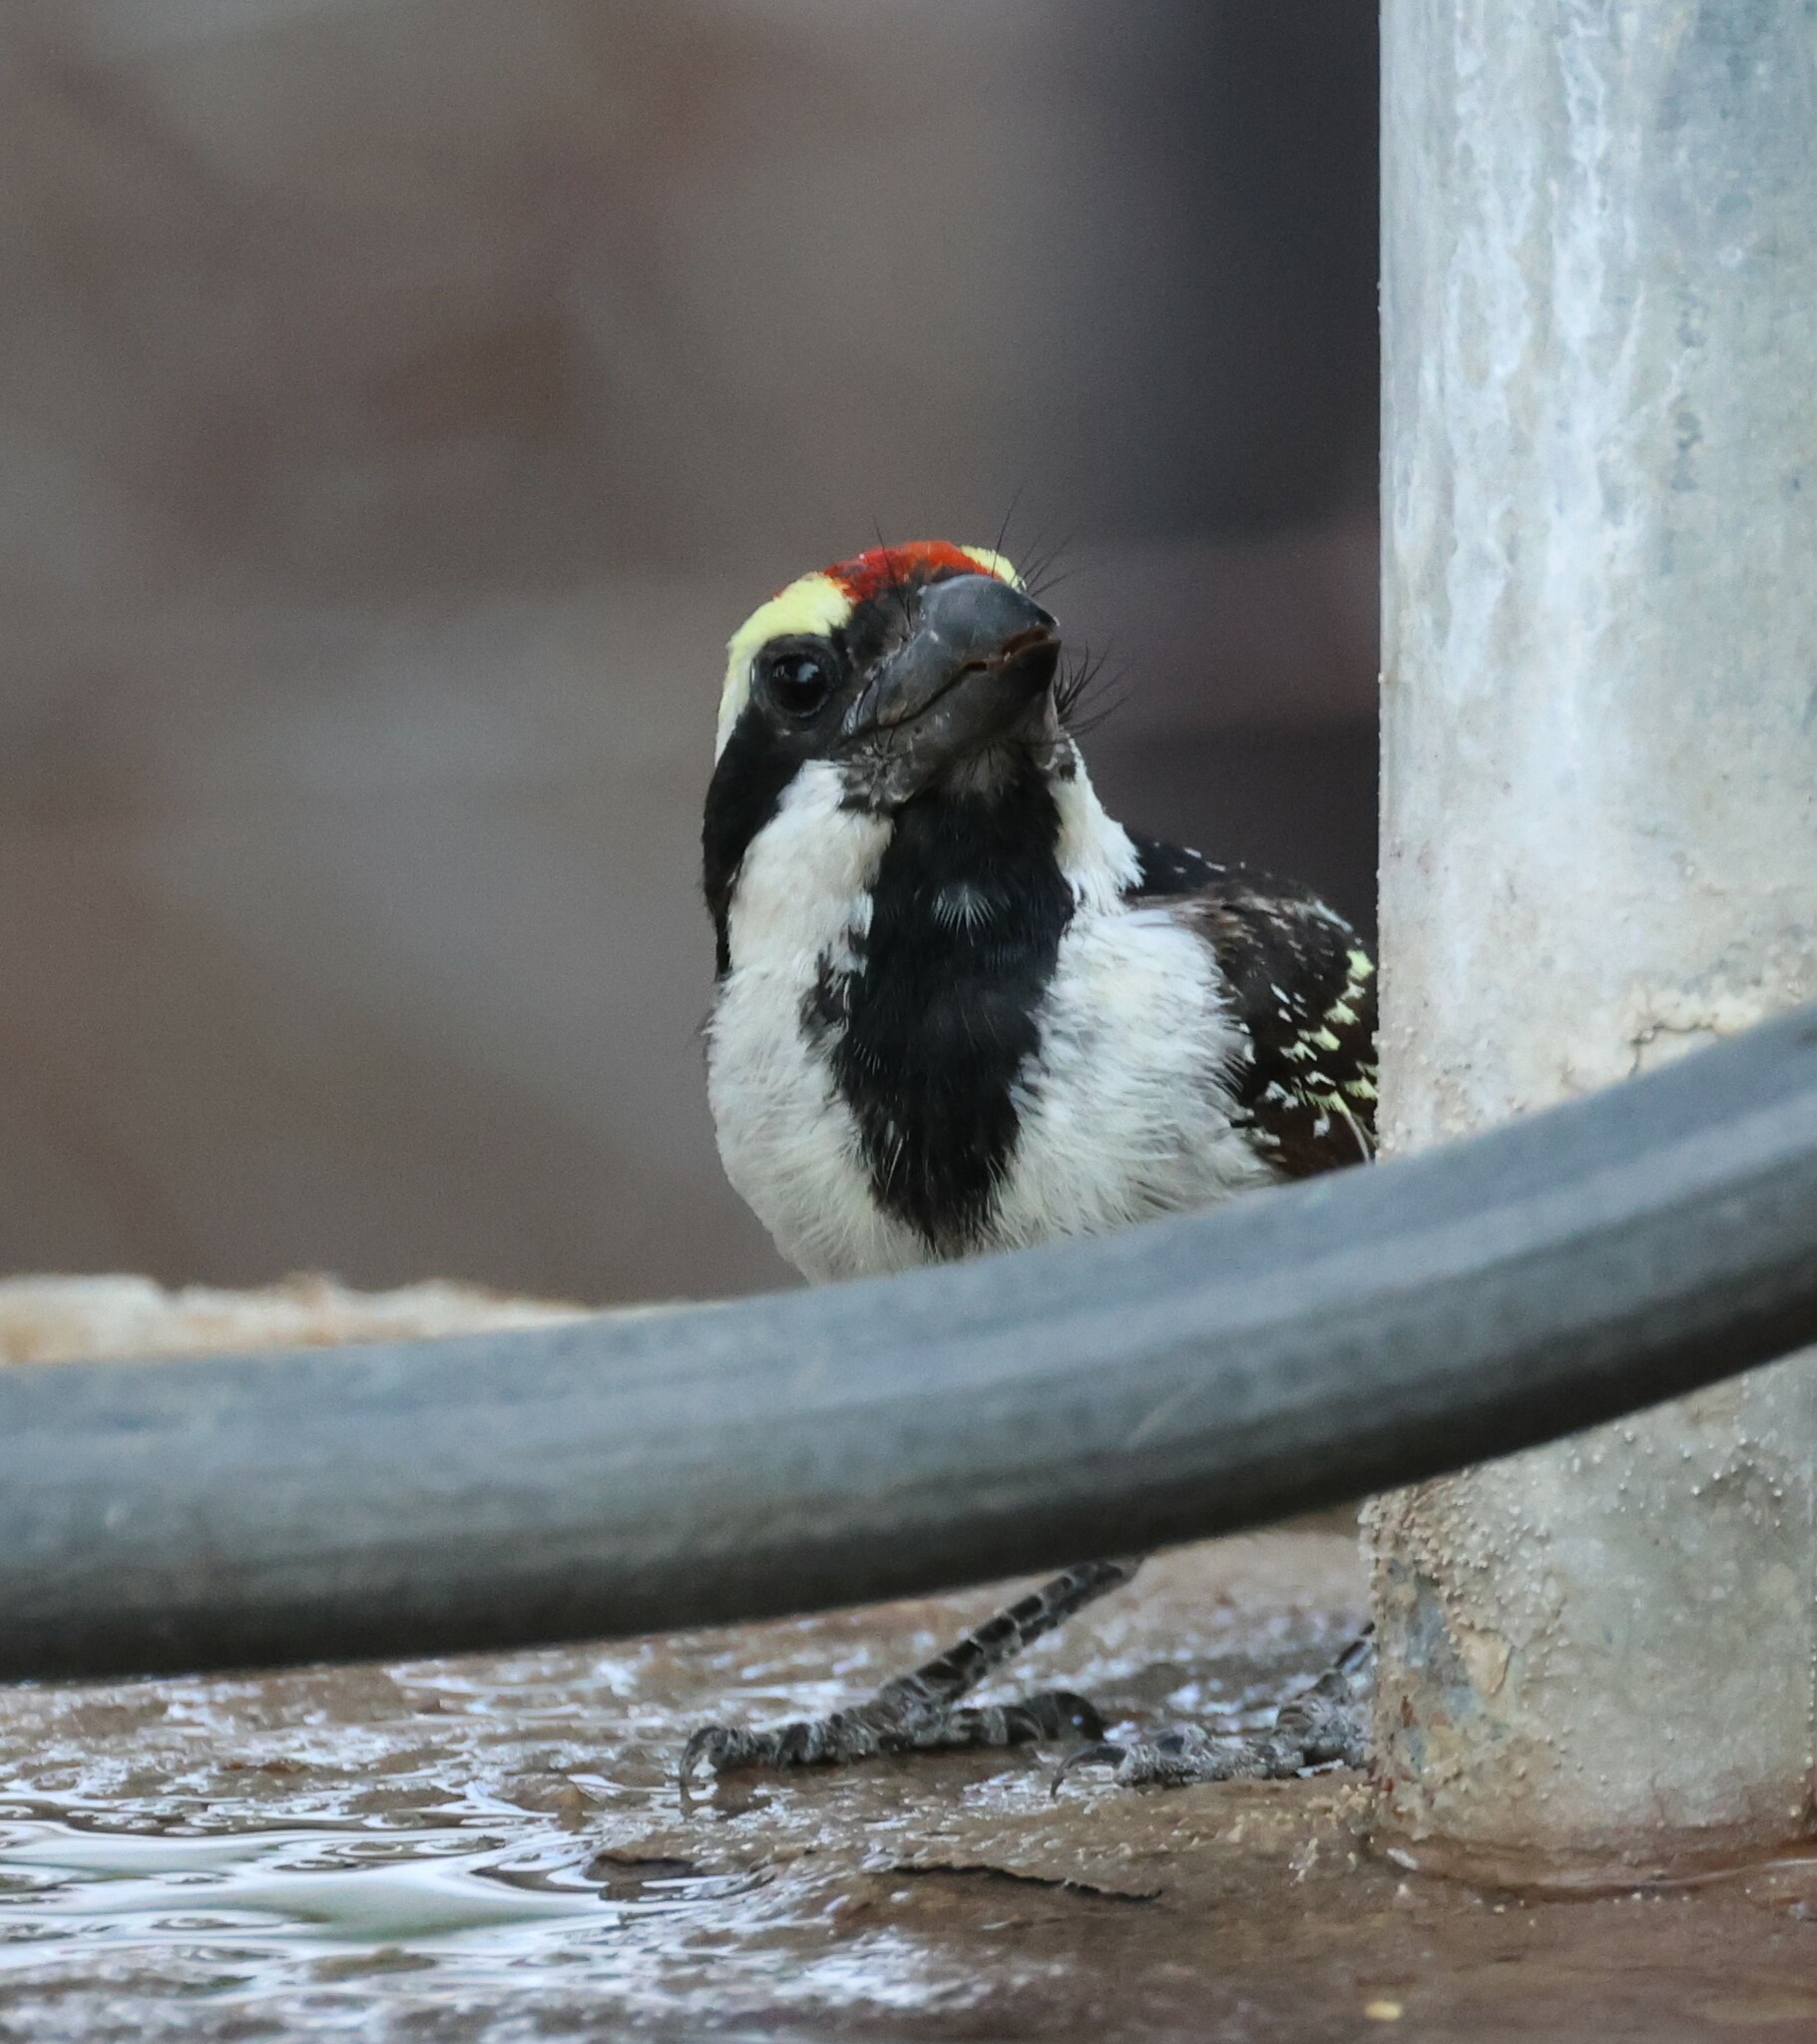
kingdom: Animalia
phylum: Chordata
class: Aves
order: Piciformes
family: Lybiidae
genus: Tricholaema
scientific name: Tricholaema leucomelas
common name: Acacia pied barbet
